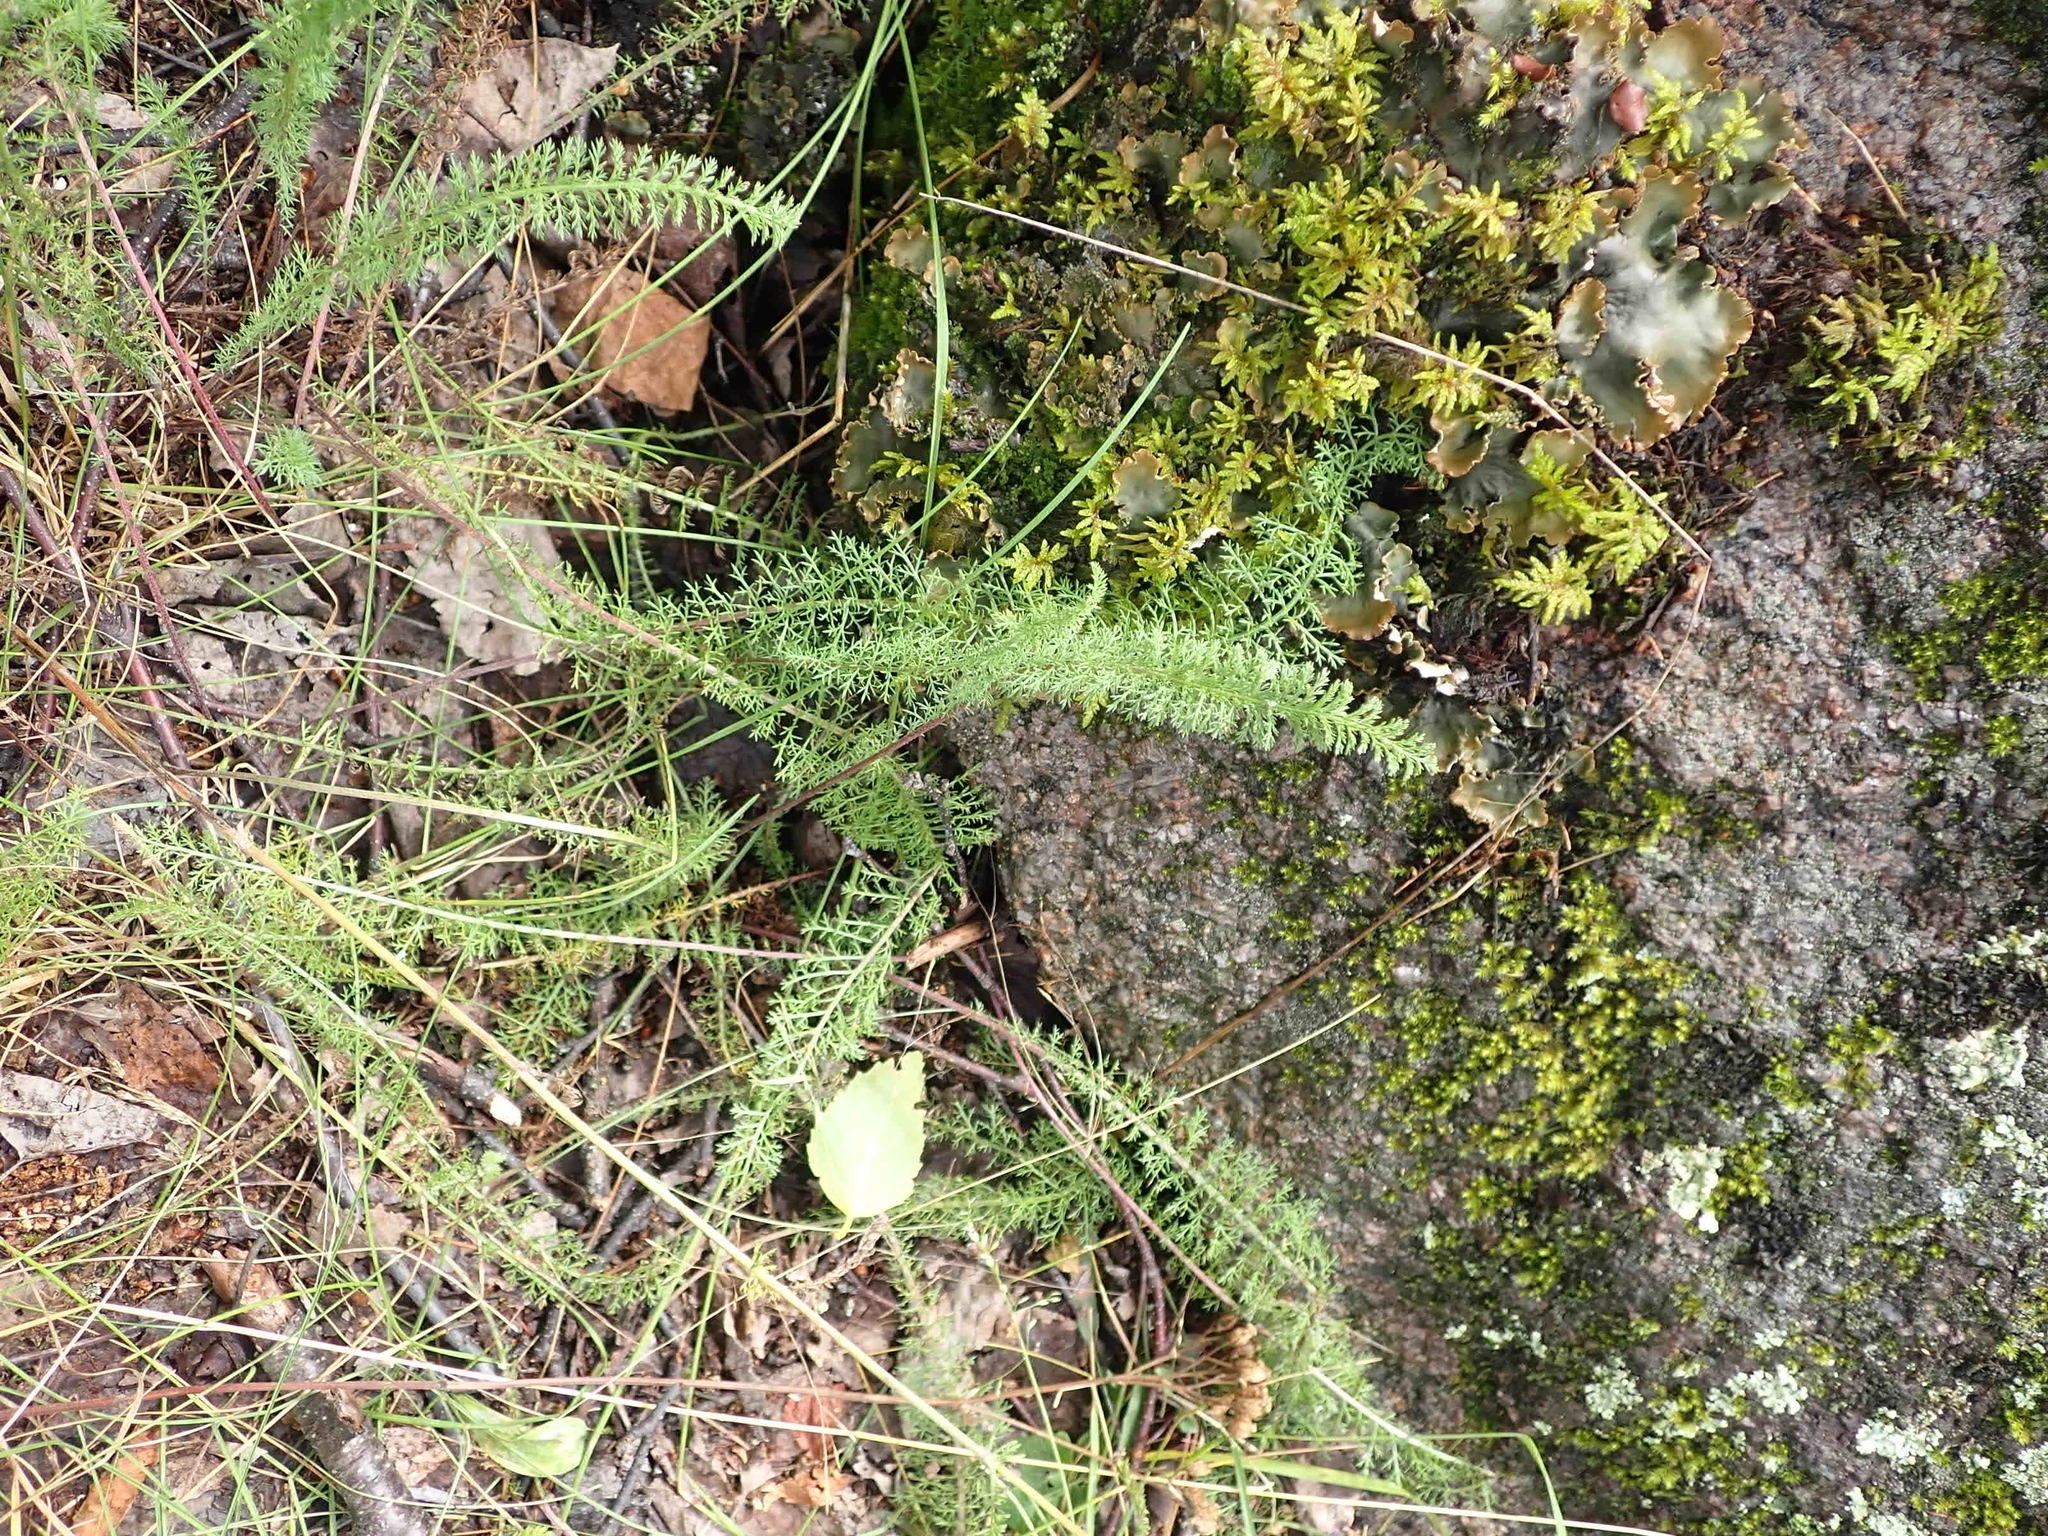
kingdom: Plantae
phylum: Tracheophyta
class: Magnoliopsida
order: Asterales
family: Asteraceae
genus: Achillea
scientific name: Achillea millefolium
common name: Yarrow
